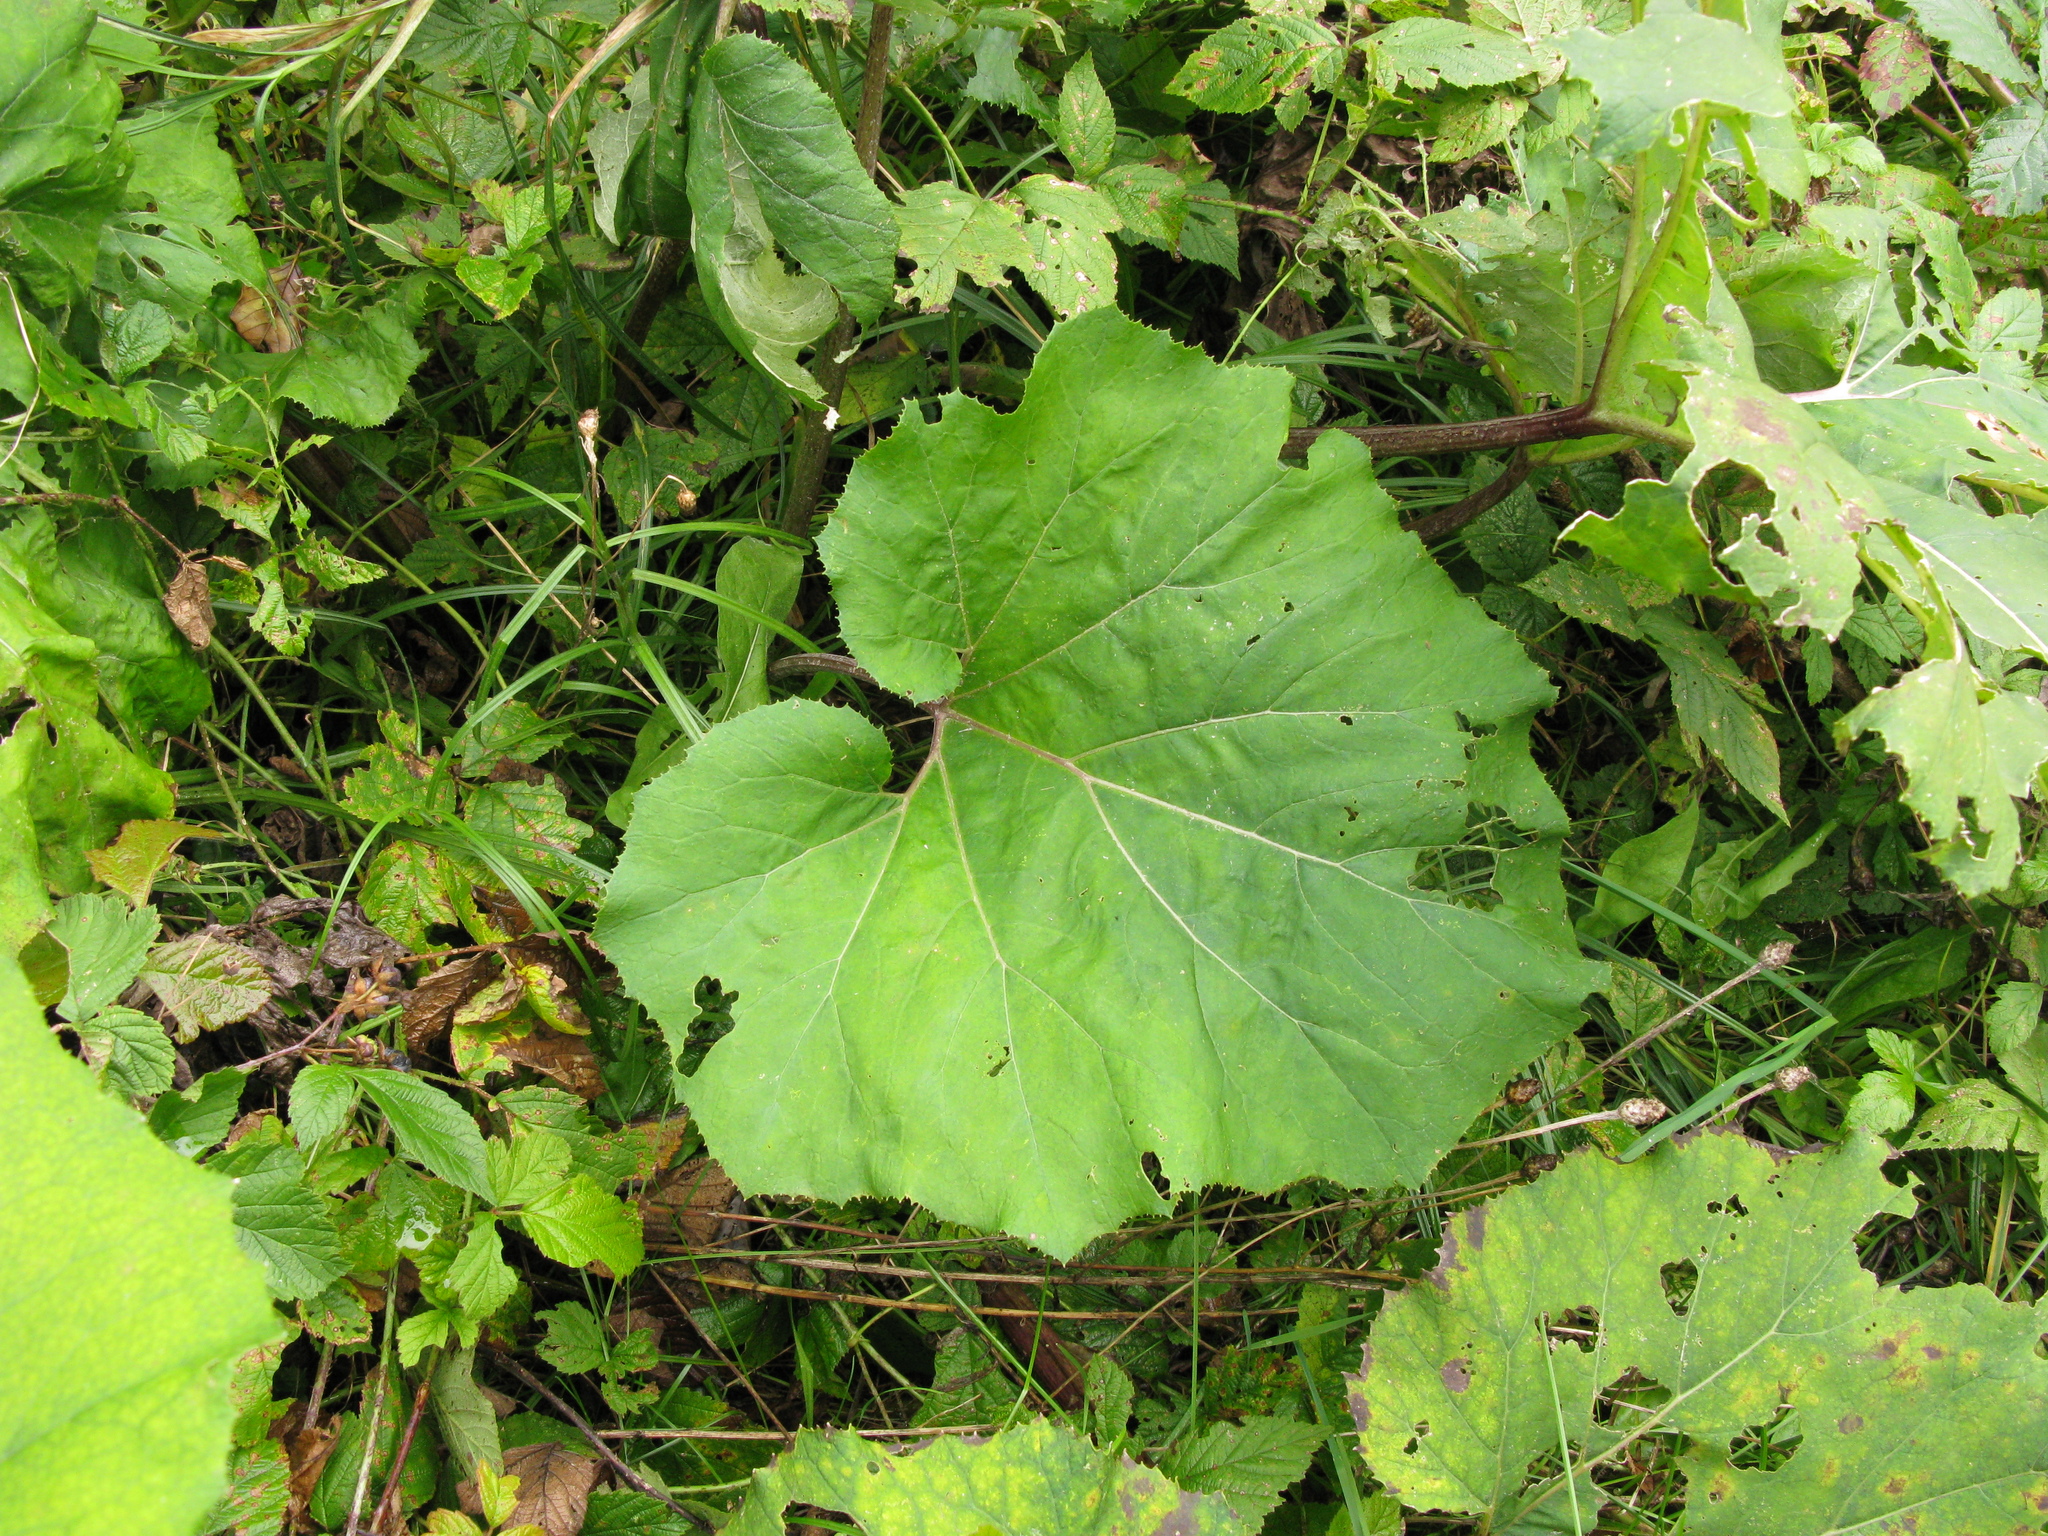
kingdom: Plantae
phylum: Tracheophyta
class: Magnoliopsida
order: Asterales
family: Asteraceae
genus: Petasites
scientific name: Petasites hybridus
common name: Butterbur
